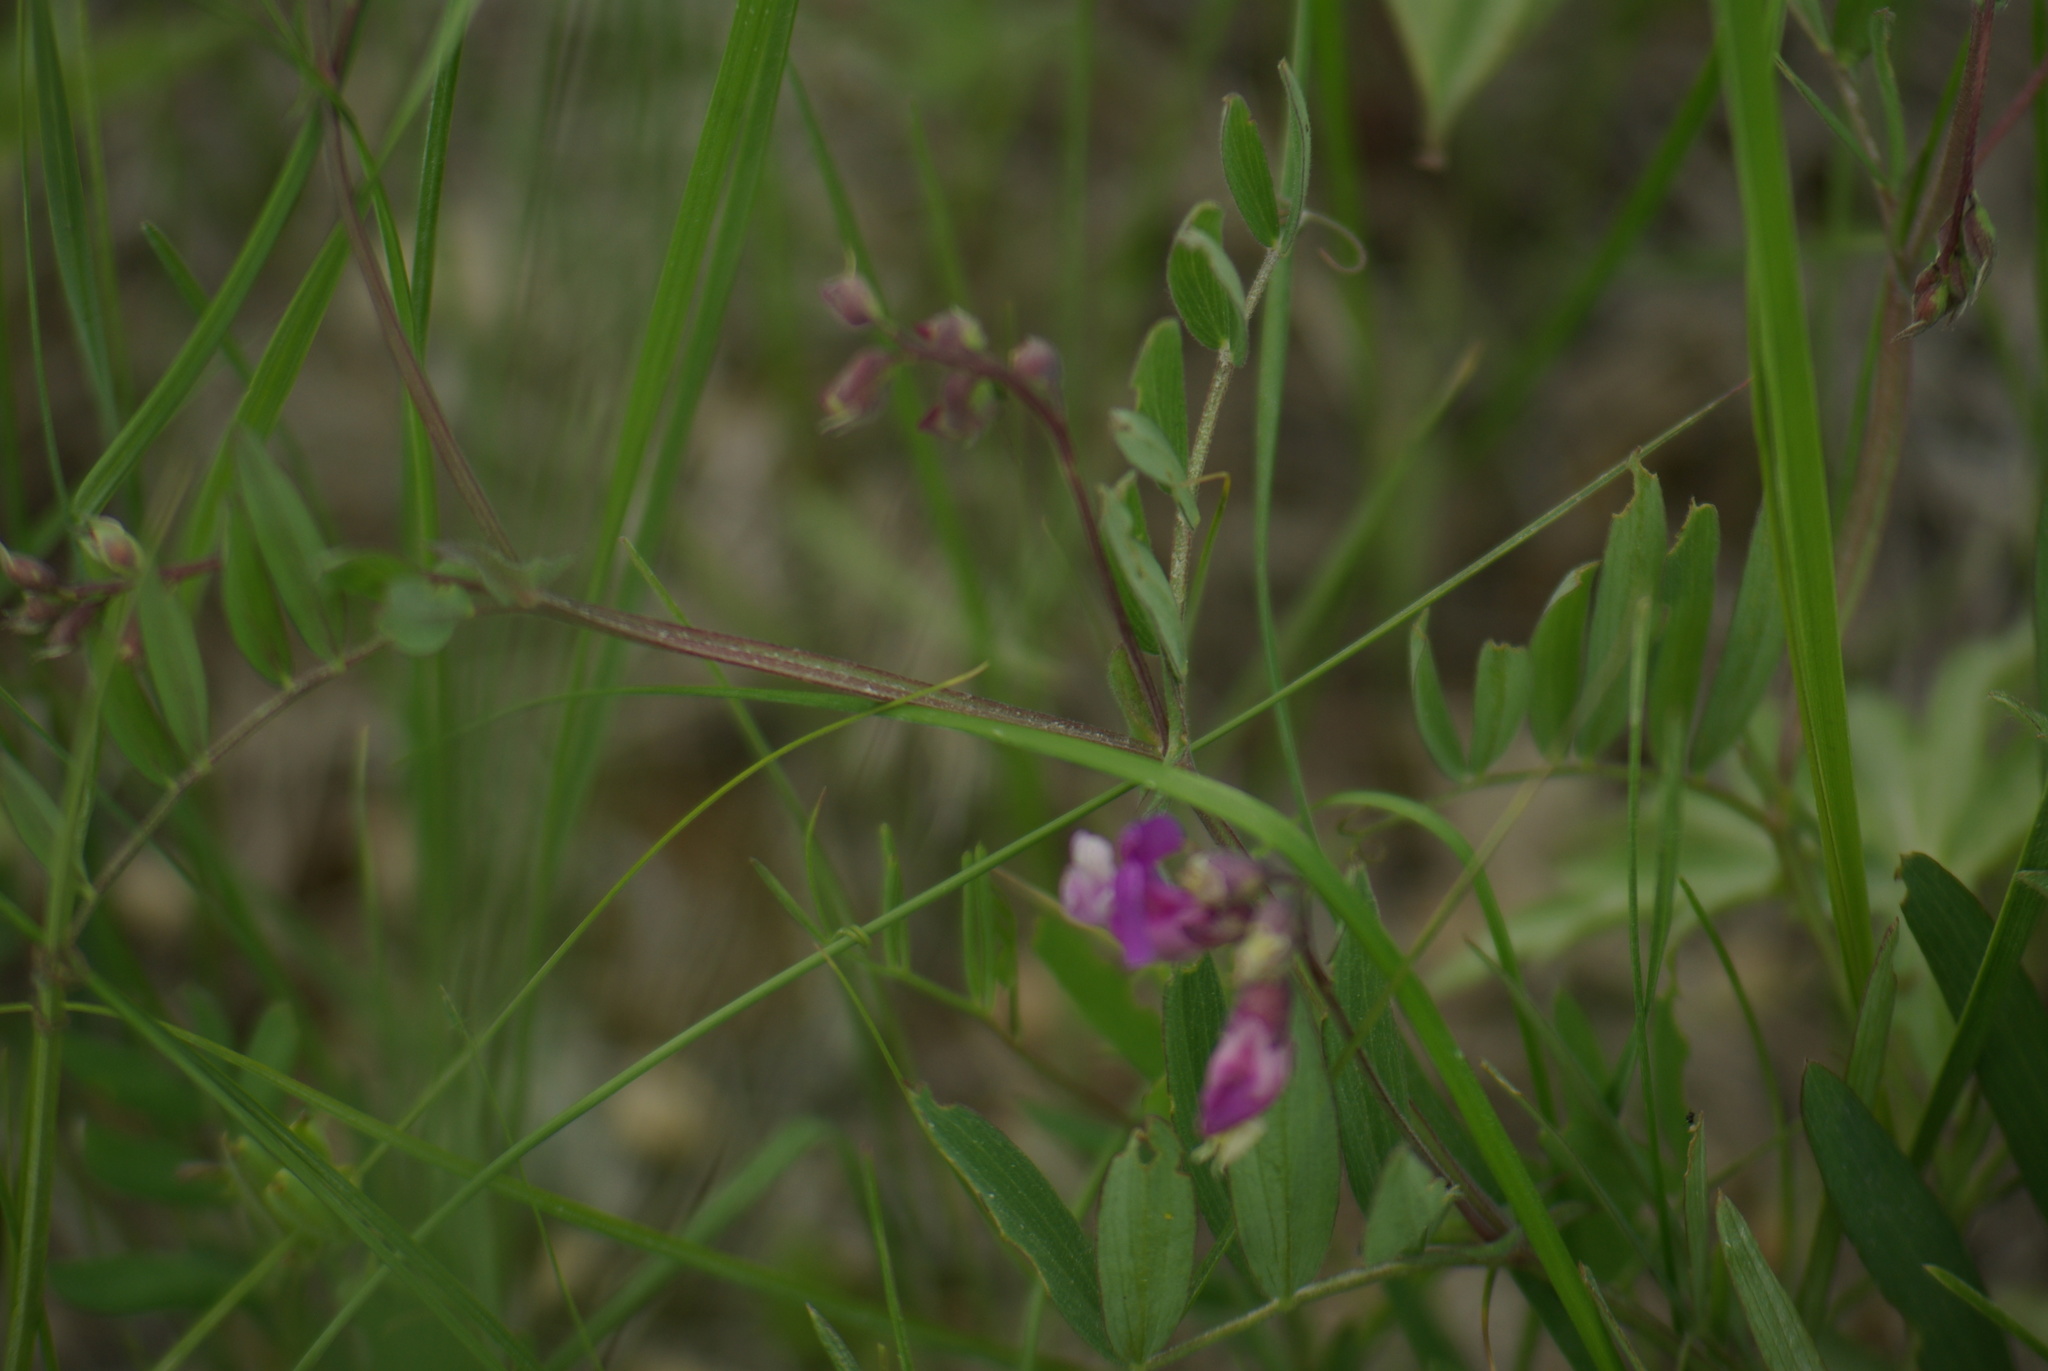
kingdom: Plantae
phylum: Tracheophyta
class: Magnoliopsida
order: Fabales
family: Fabaceae
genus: Vicia
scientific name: Vicia americana
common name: American vetch
